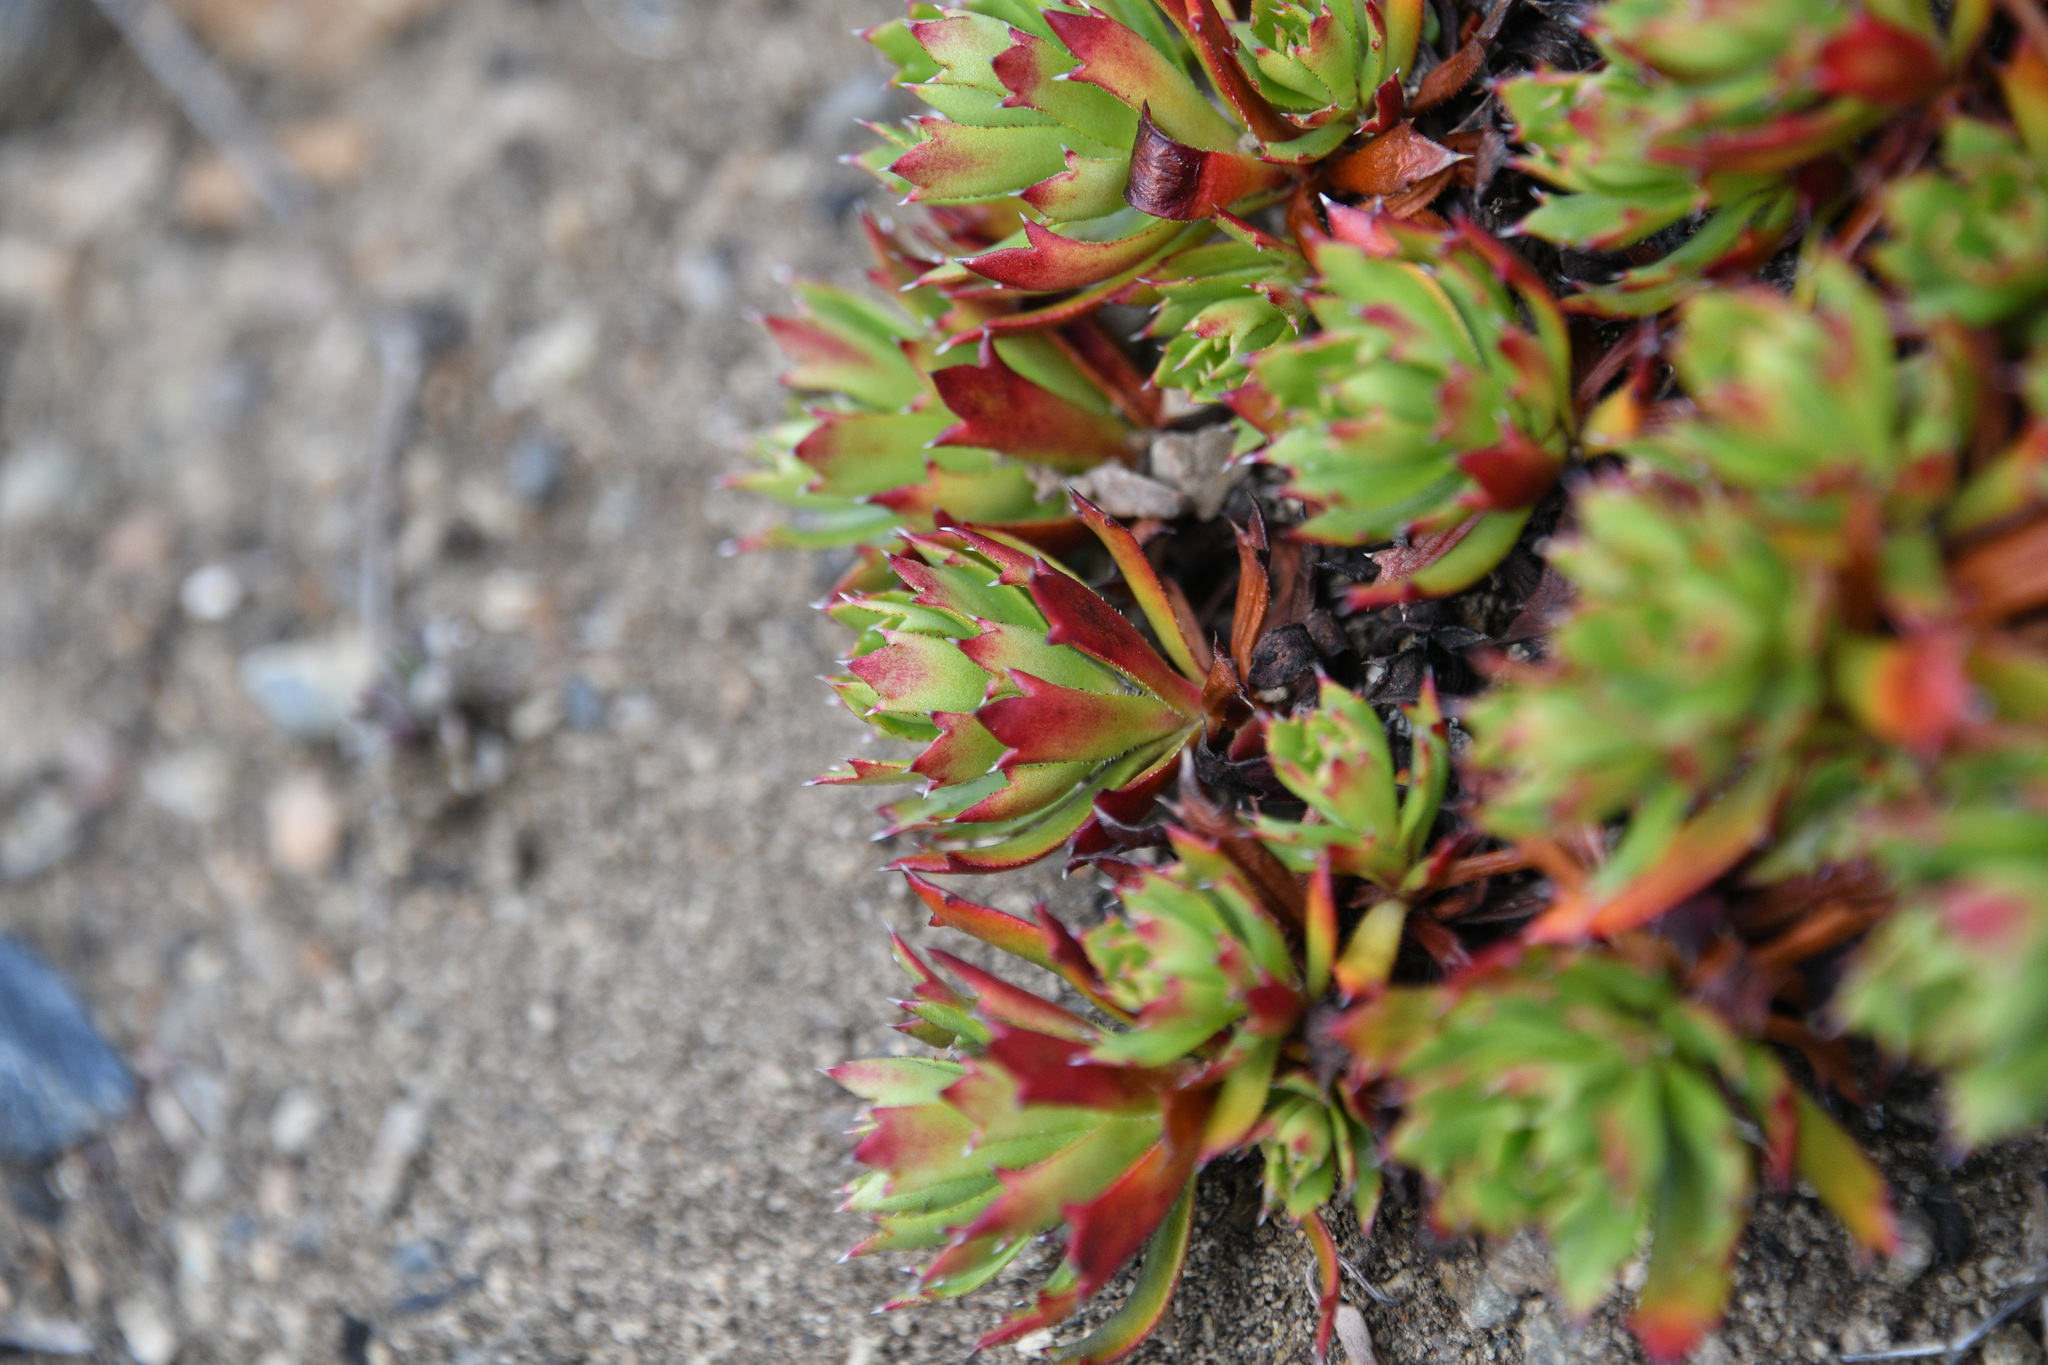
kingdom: Plantae
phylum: Tracheophyta
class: Magnoliopsida
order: Saxifragales
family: Saxifragaceae
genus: Saxifraga
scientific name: Saxifraga tricuspidata
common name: Prickly saxifrage
